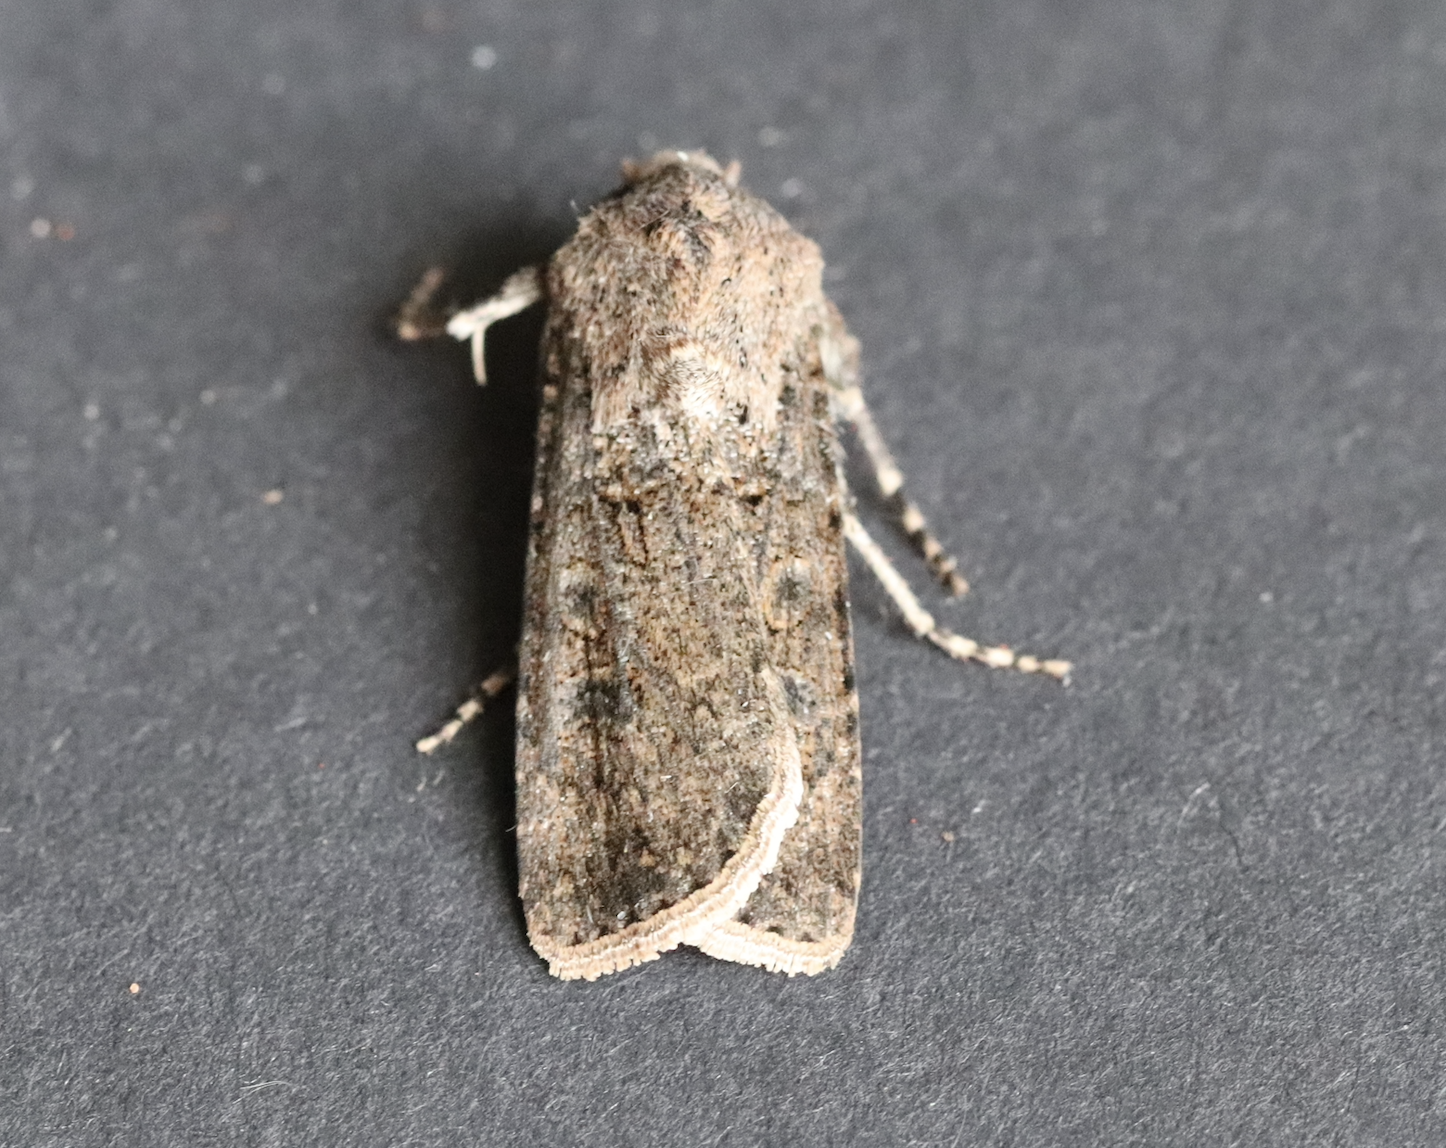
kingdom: Animalia
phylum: Arthropoda
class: Insecta
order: Lepidoptera
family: Noctuidae
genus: Agrotis
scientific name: Agrotis segetum
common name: Turnip moth
